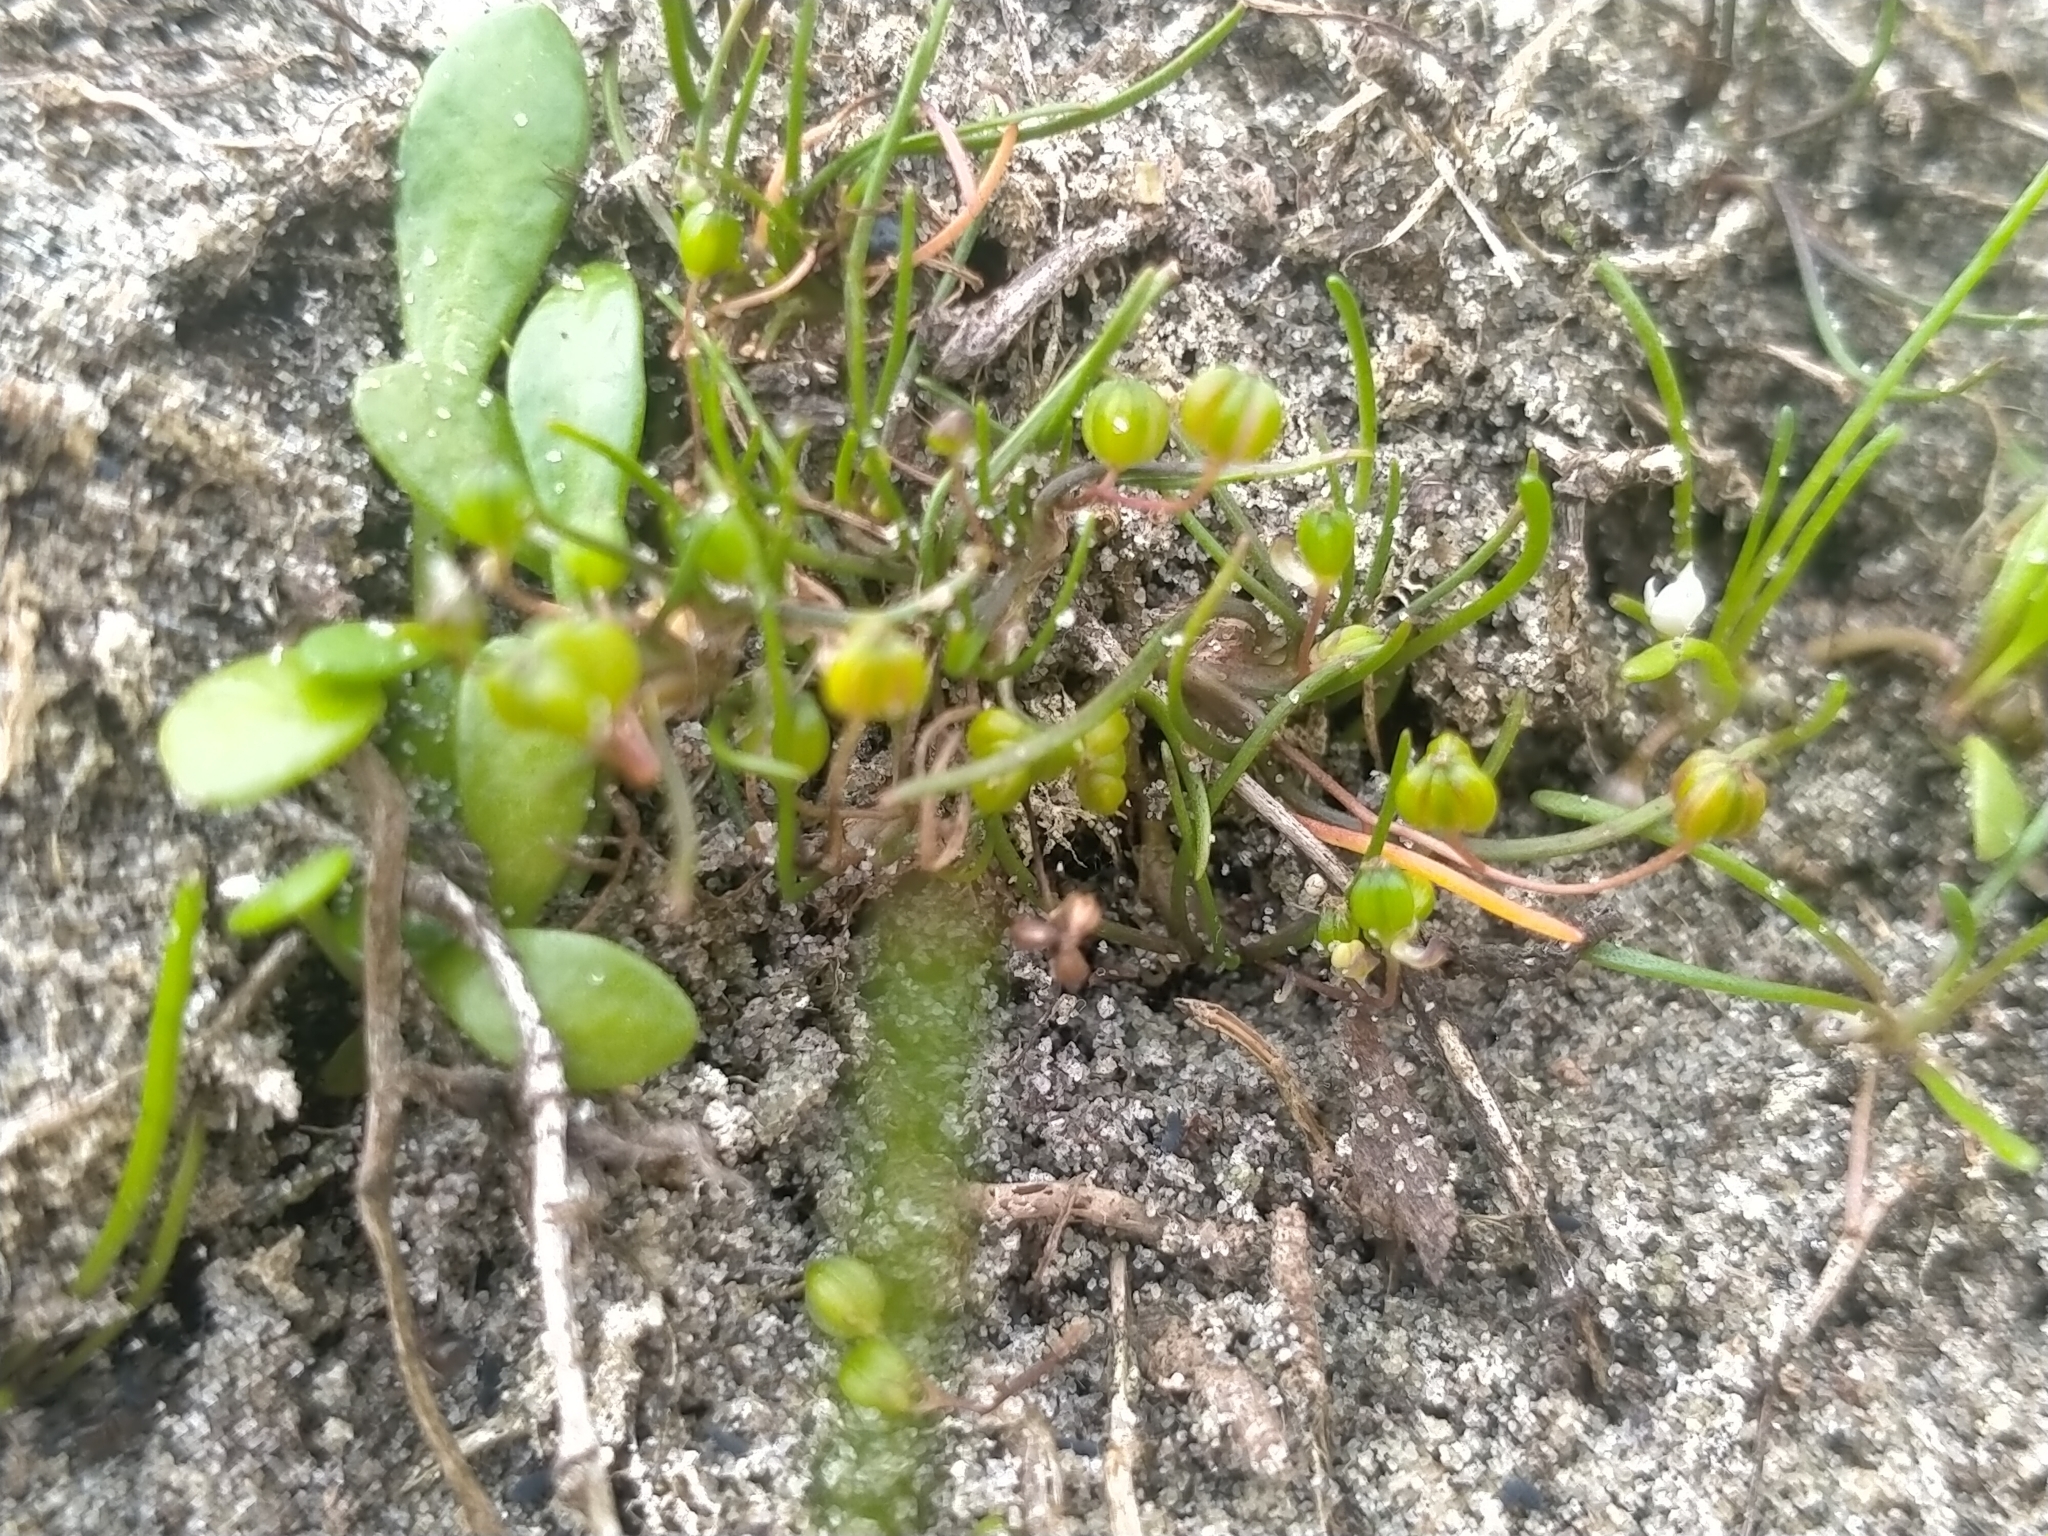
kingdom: Plantae
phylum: Tracheophyta
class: Liliopsida
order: Alismatales
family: Juncaginaceae
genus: Triglochin
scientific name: Triglochin striata
